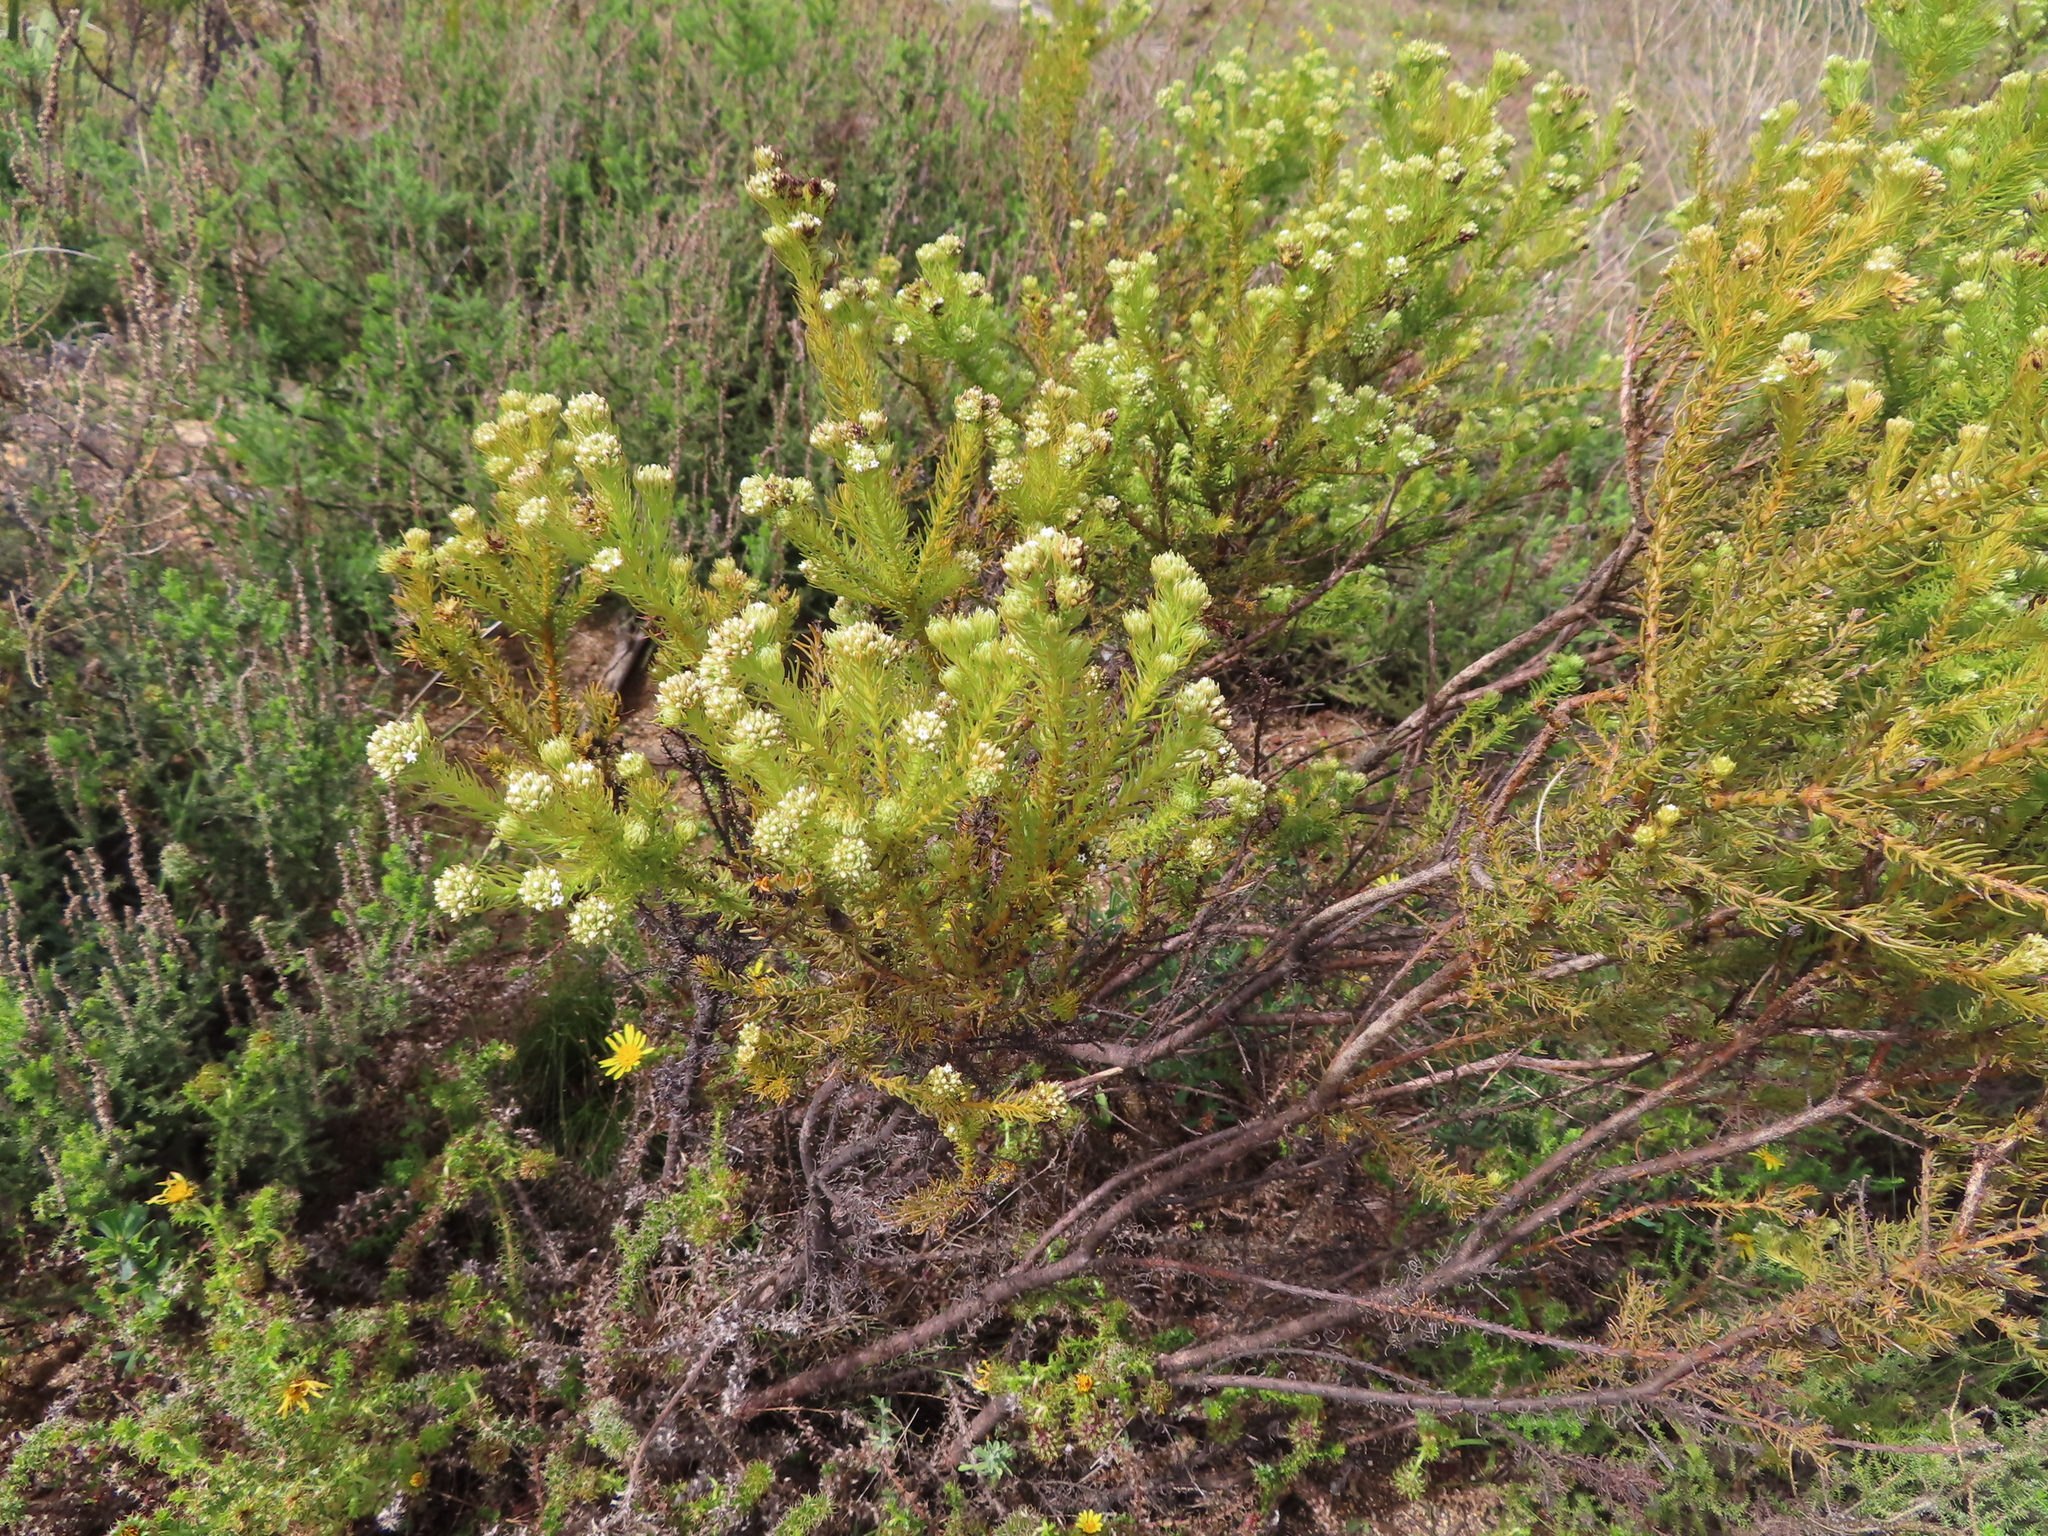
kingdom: Plantae
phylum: Tracheophyta
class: Magnoliopsida
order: Santalales
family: Thesiaceae
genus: Thesium
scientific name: Thesium scabrum
